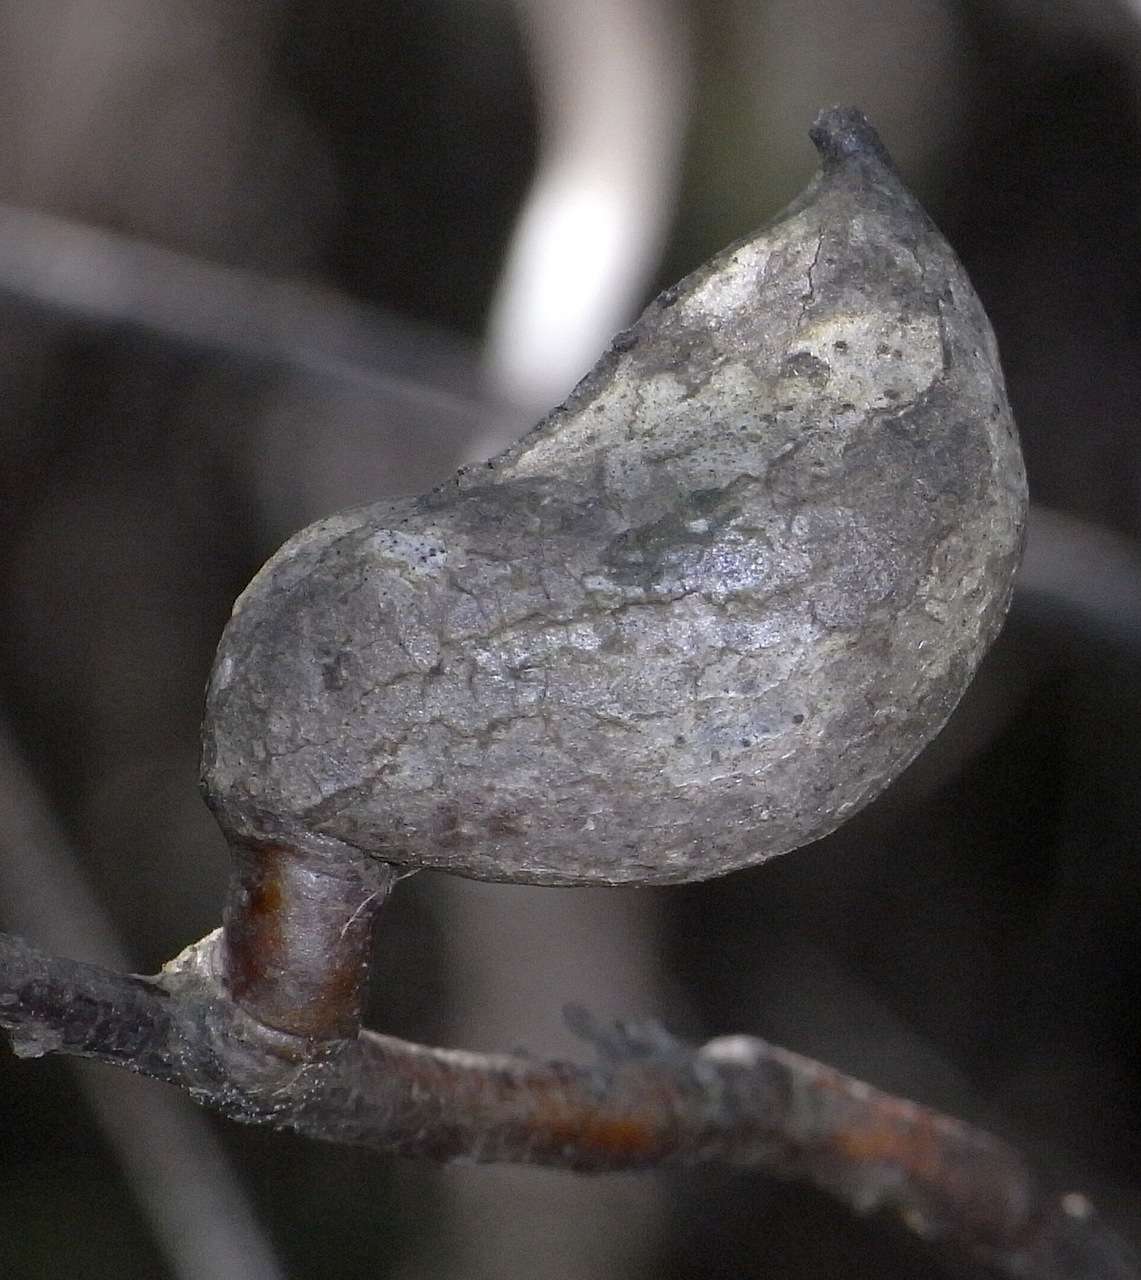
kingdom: Plantae
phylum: Tracheophyta
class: Magnoliopsida
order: Proteales
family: Proteaceae
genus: Hakea
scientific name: Hakea eriantha
